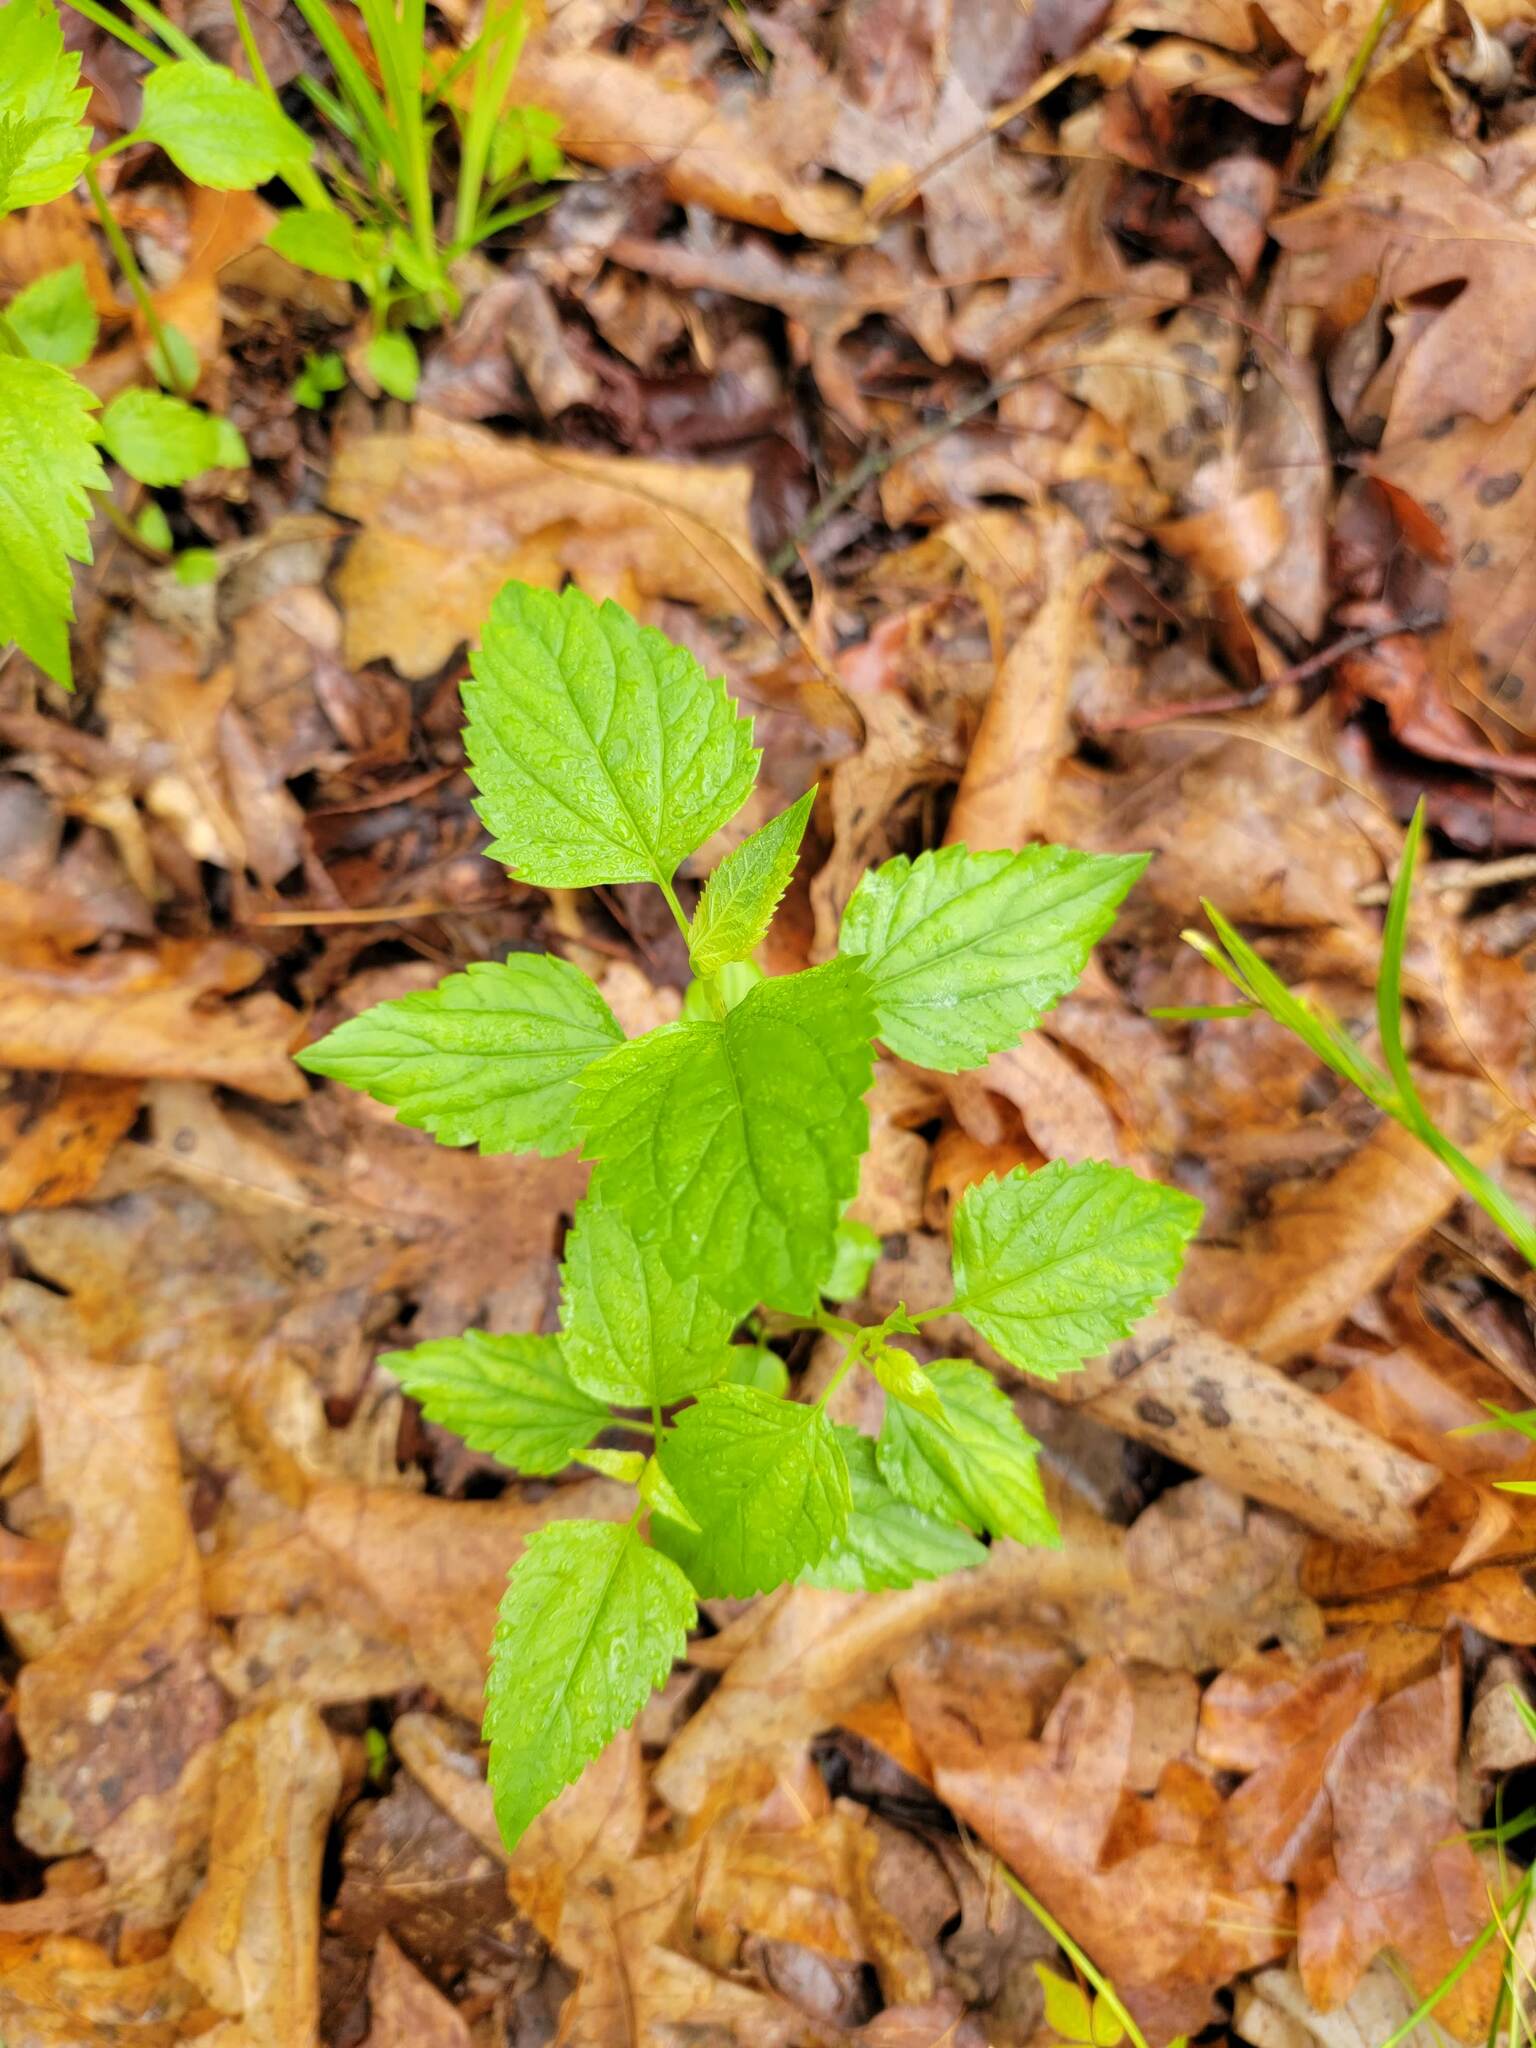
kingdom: Plantae
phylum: Tracheophyta
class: Magnoliopsida
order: Asterales
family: Asteraceae
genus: Ageratina
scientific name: Ageratina altissima
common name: White snakeroot
